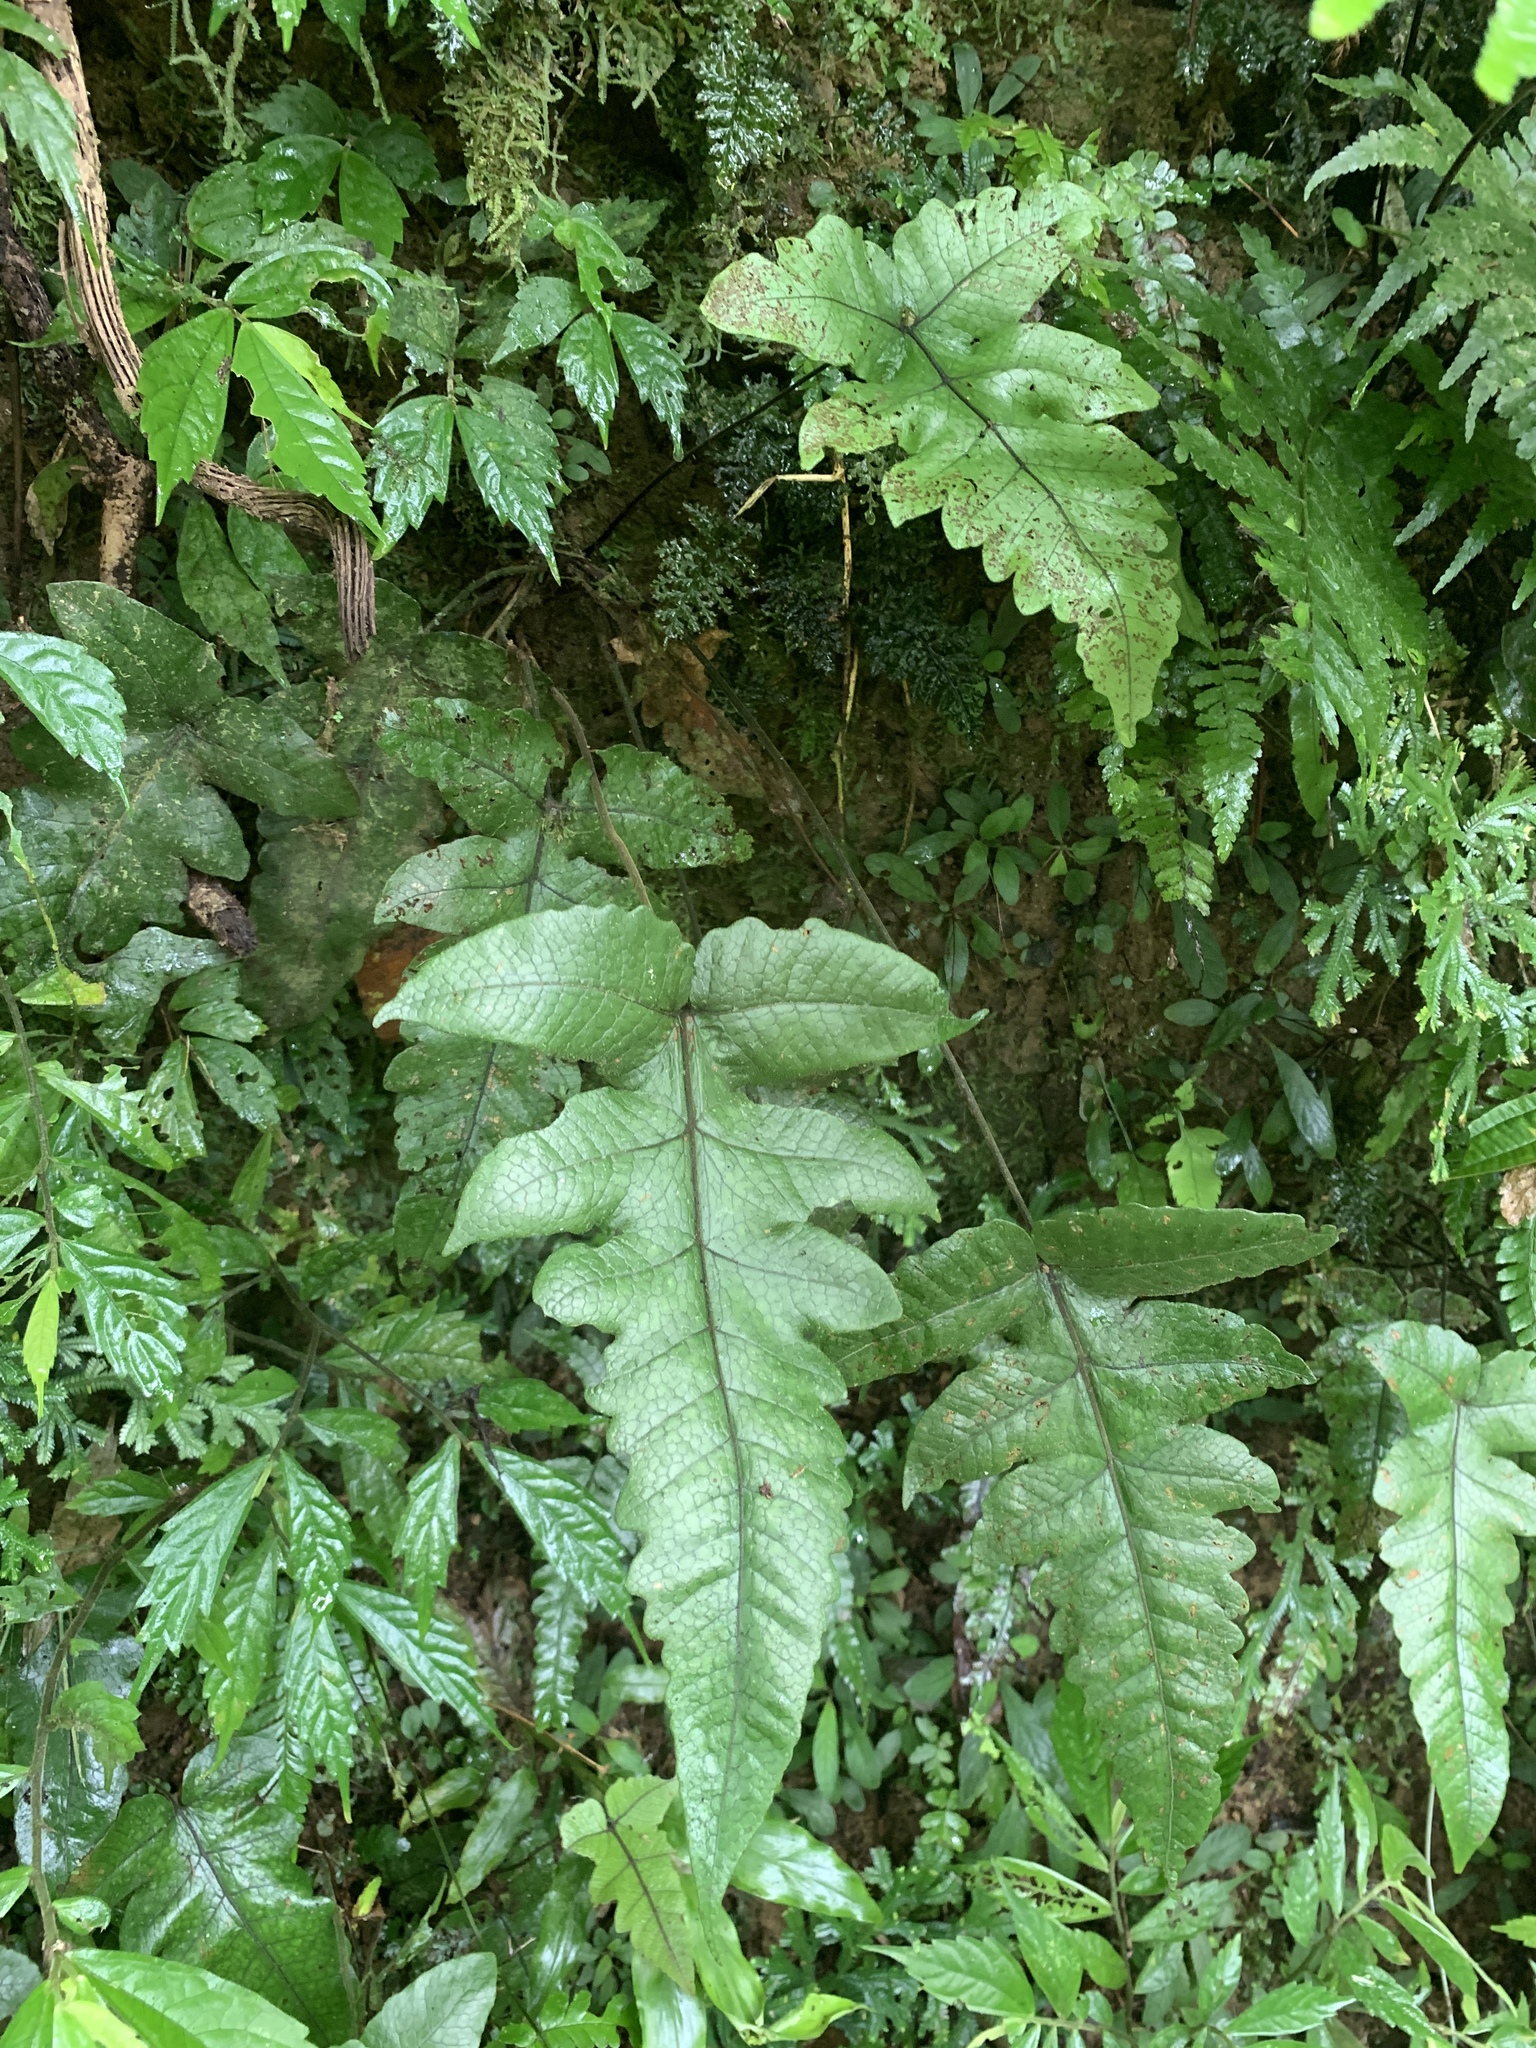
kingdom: Plantae
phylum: Tracheophyta
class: Polypodiopsida
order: Polypodiales
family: Thelypteridaceae
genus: Stegnogramma
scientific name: Stegnogramma wilfordii
